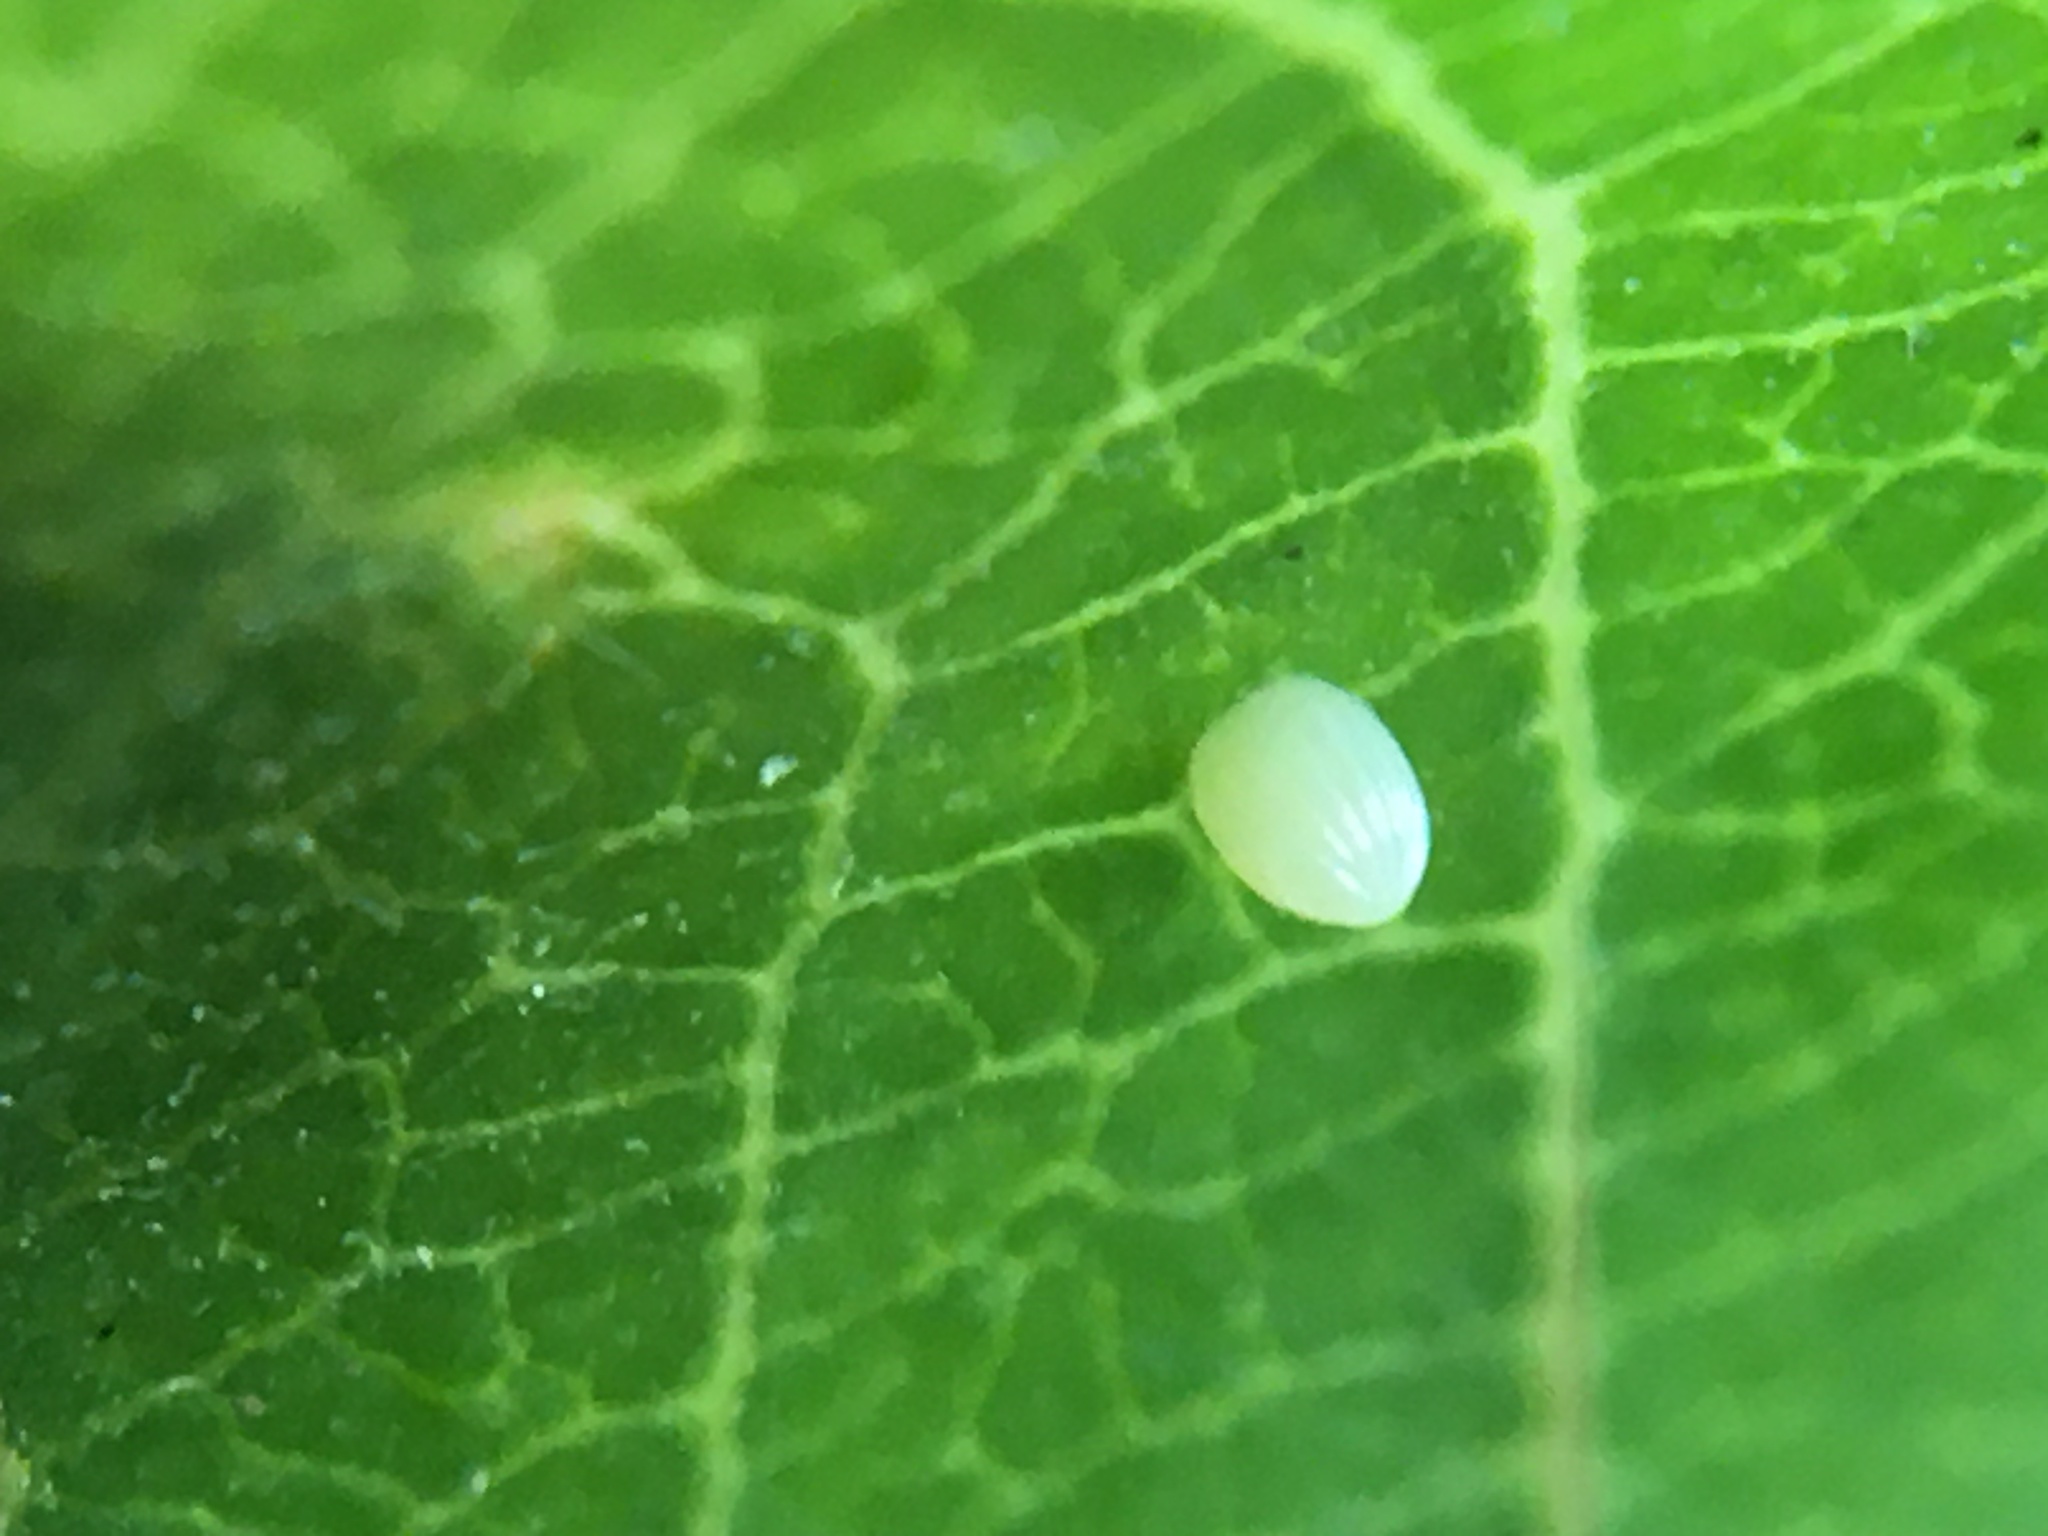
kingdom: Animalia
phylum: Arthropoda
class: Insecta
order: Lepidoptera
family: Nymphalidae
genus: Danaus
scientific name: Danaus plexippus
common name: Monarch
